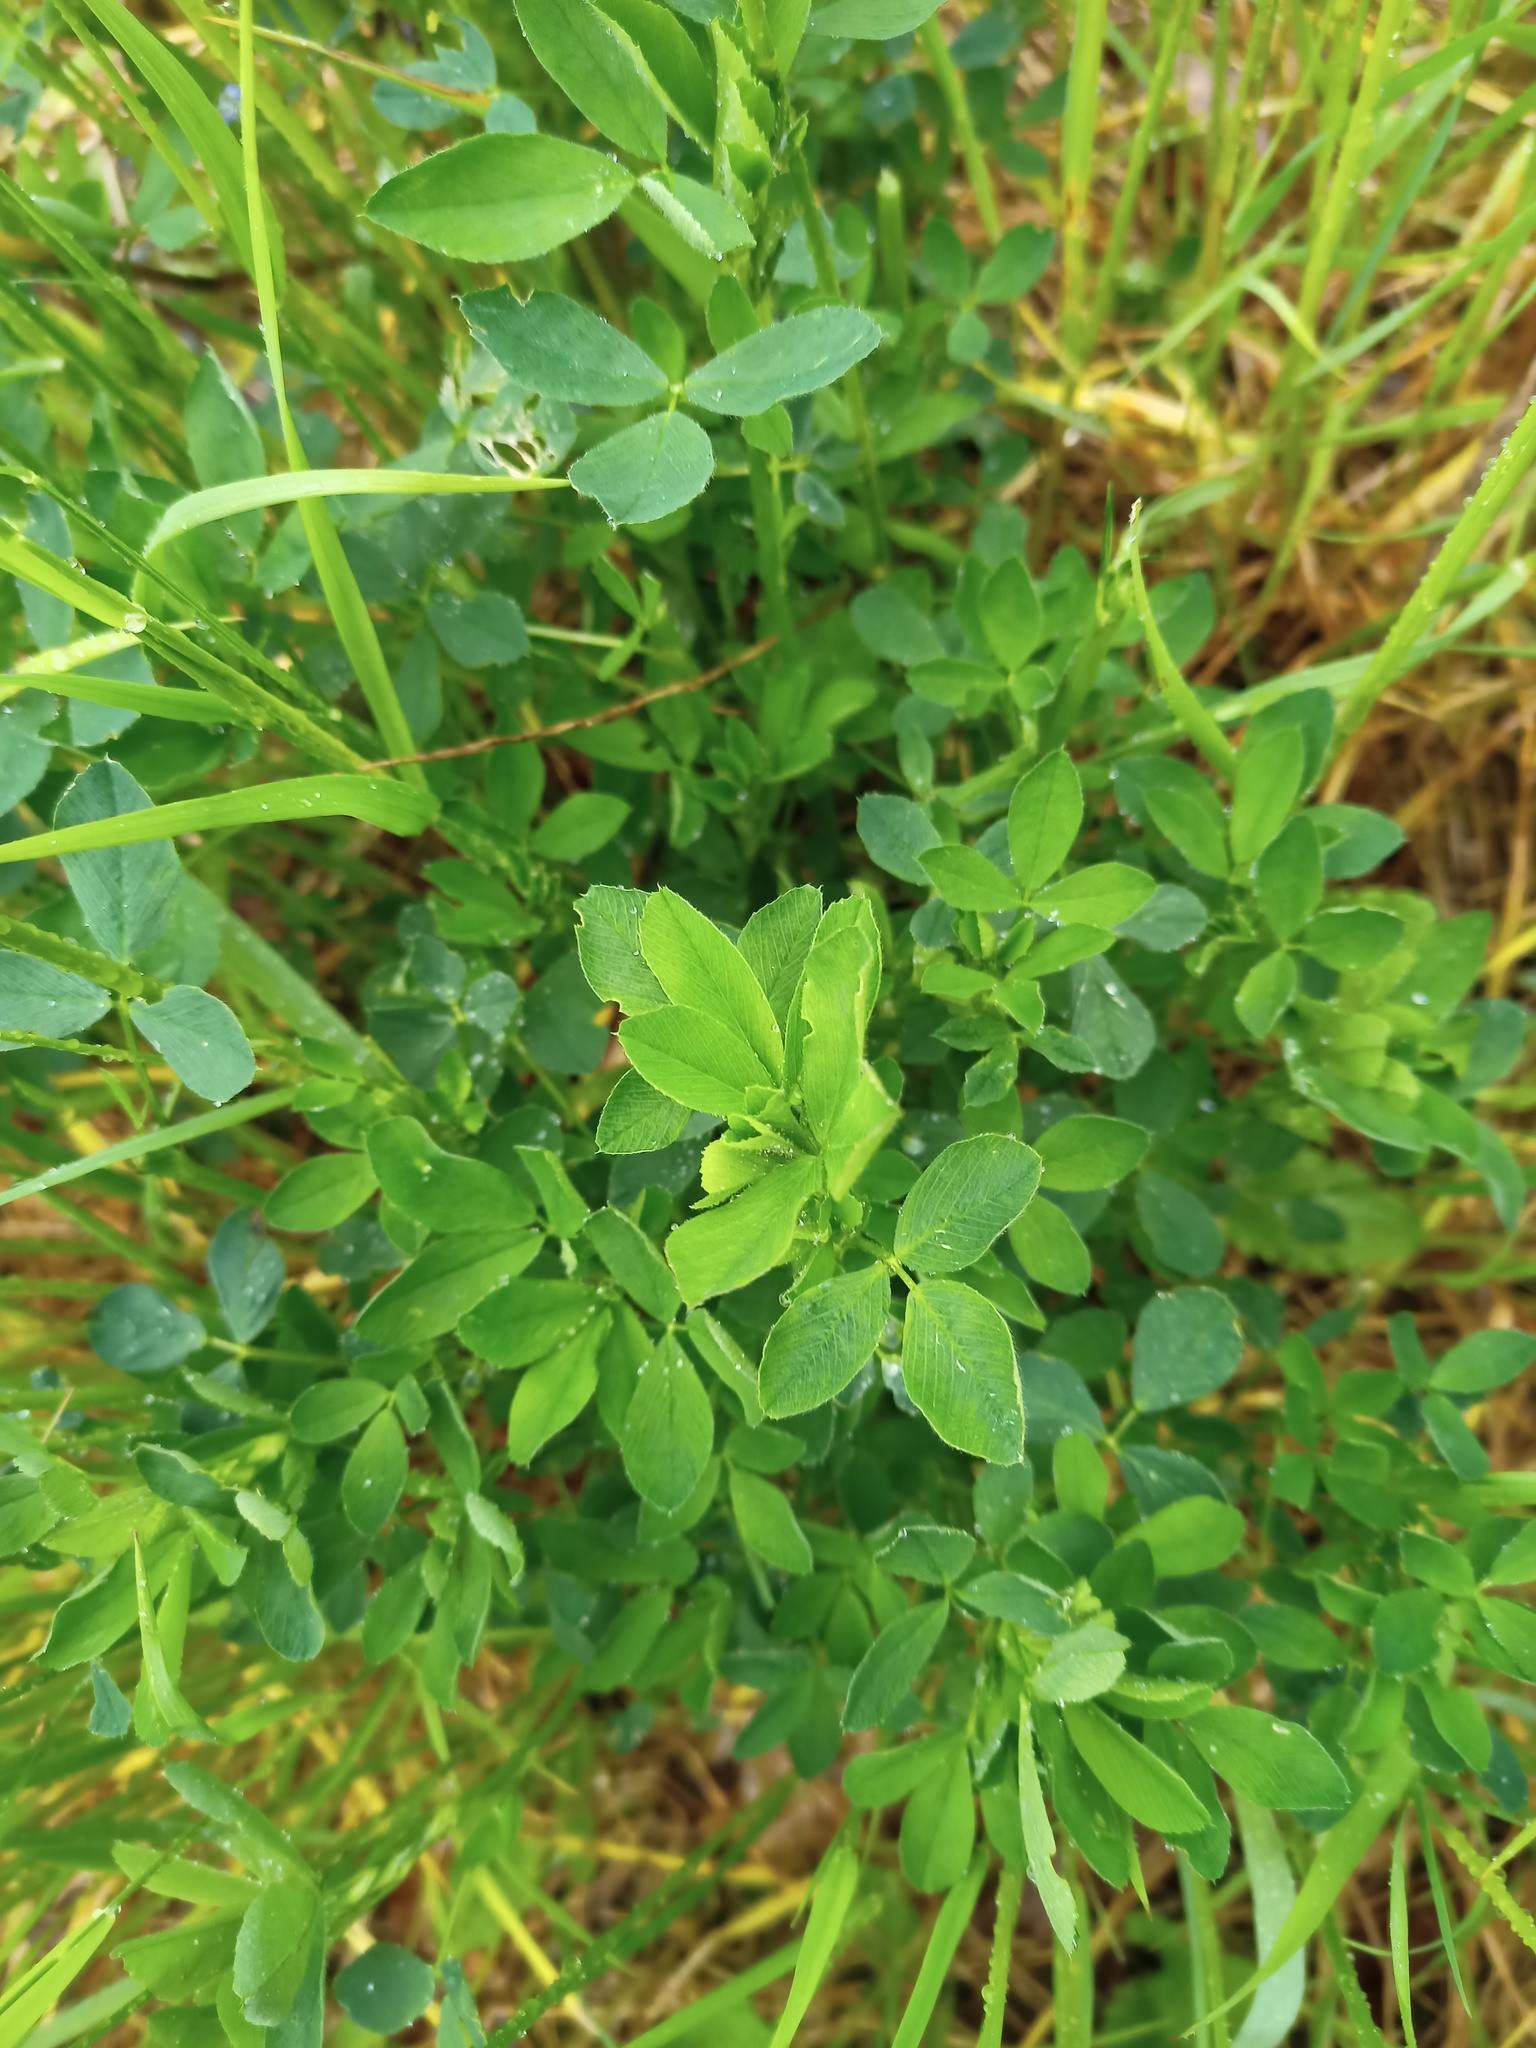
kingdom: Plantae
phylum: Tracheophyta
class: Magnoliopsida
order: Fabales
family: Fabaceae
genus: Medicago
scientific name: Medicago sativa
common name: Alfalfa
